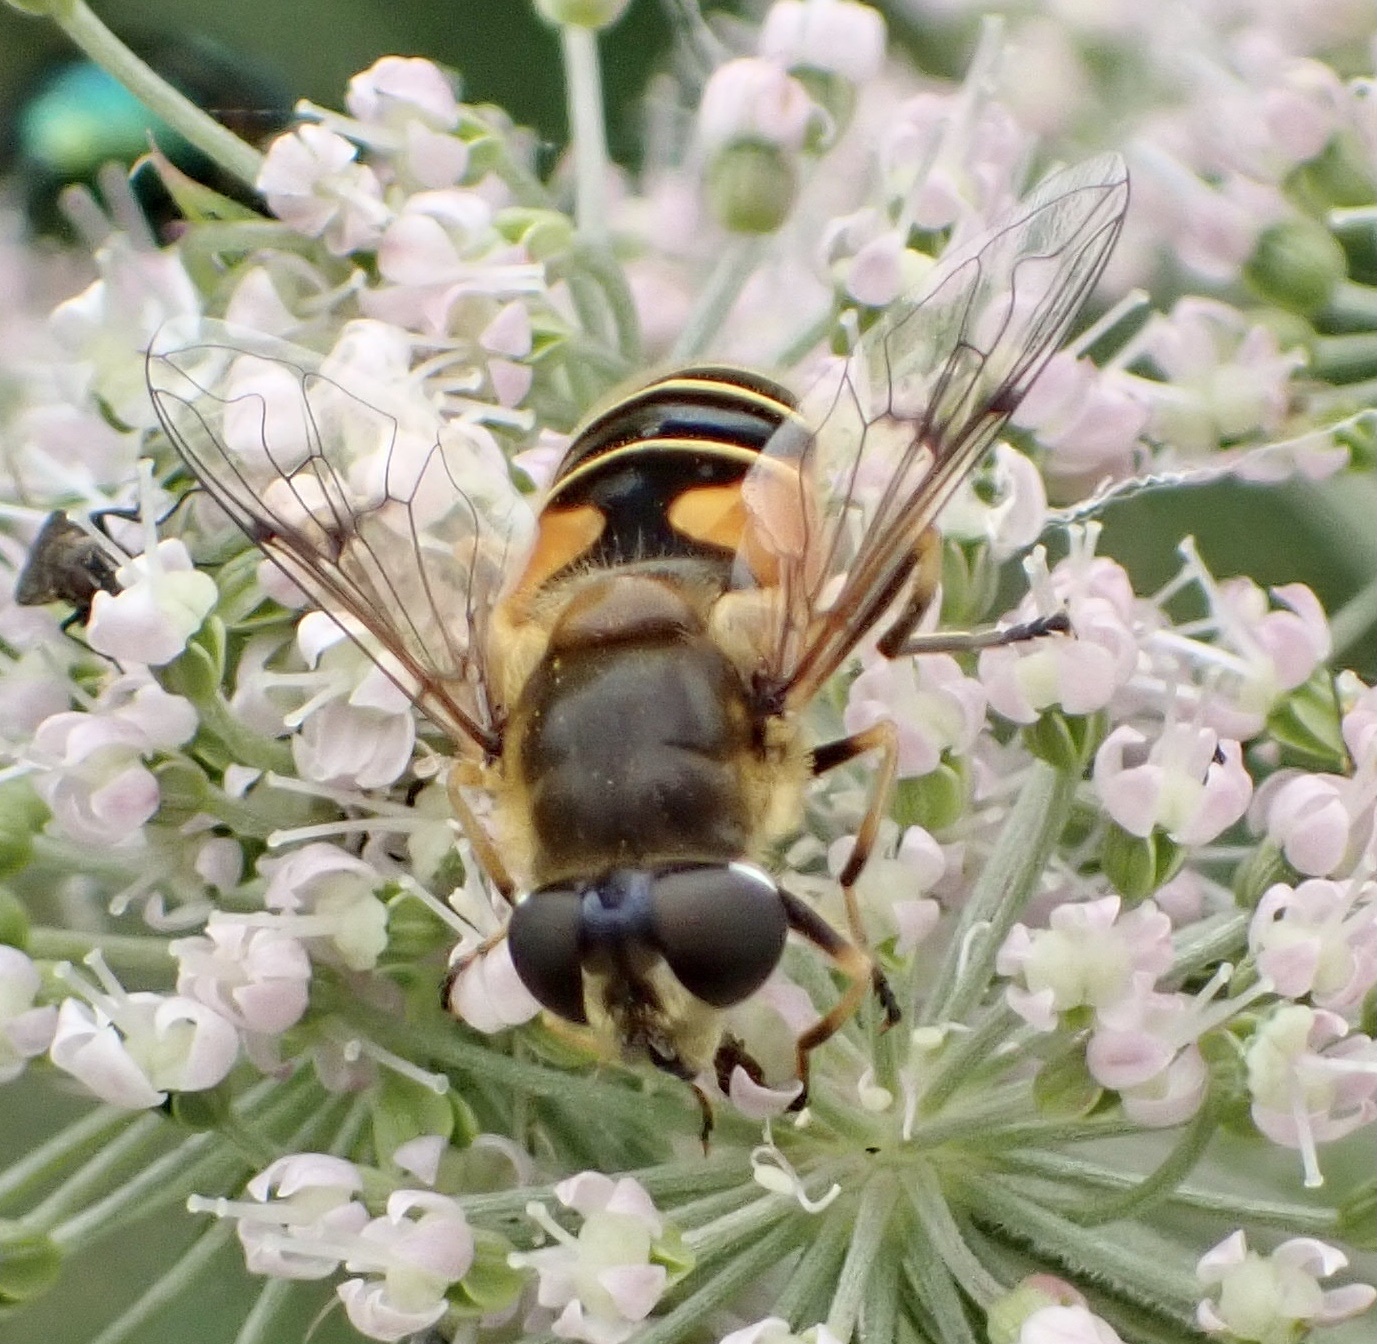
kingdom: Animalia
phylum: Arthropoda
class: Insecta
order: Diptera
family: Syrphidae
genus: Cheilosia
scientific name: Cheilosia morio
